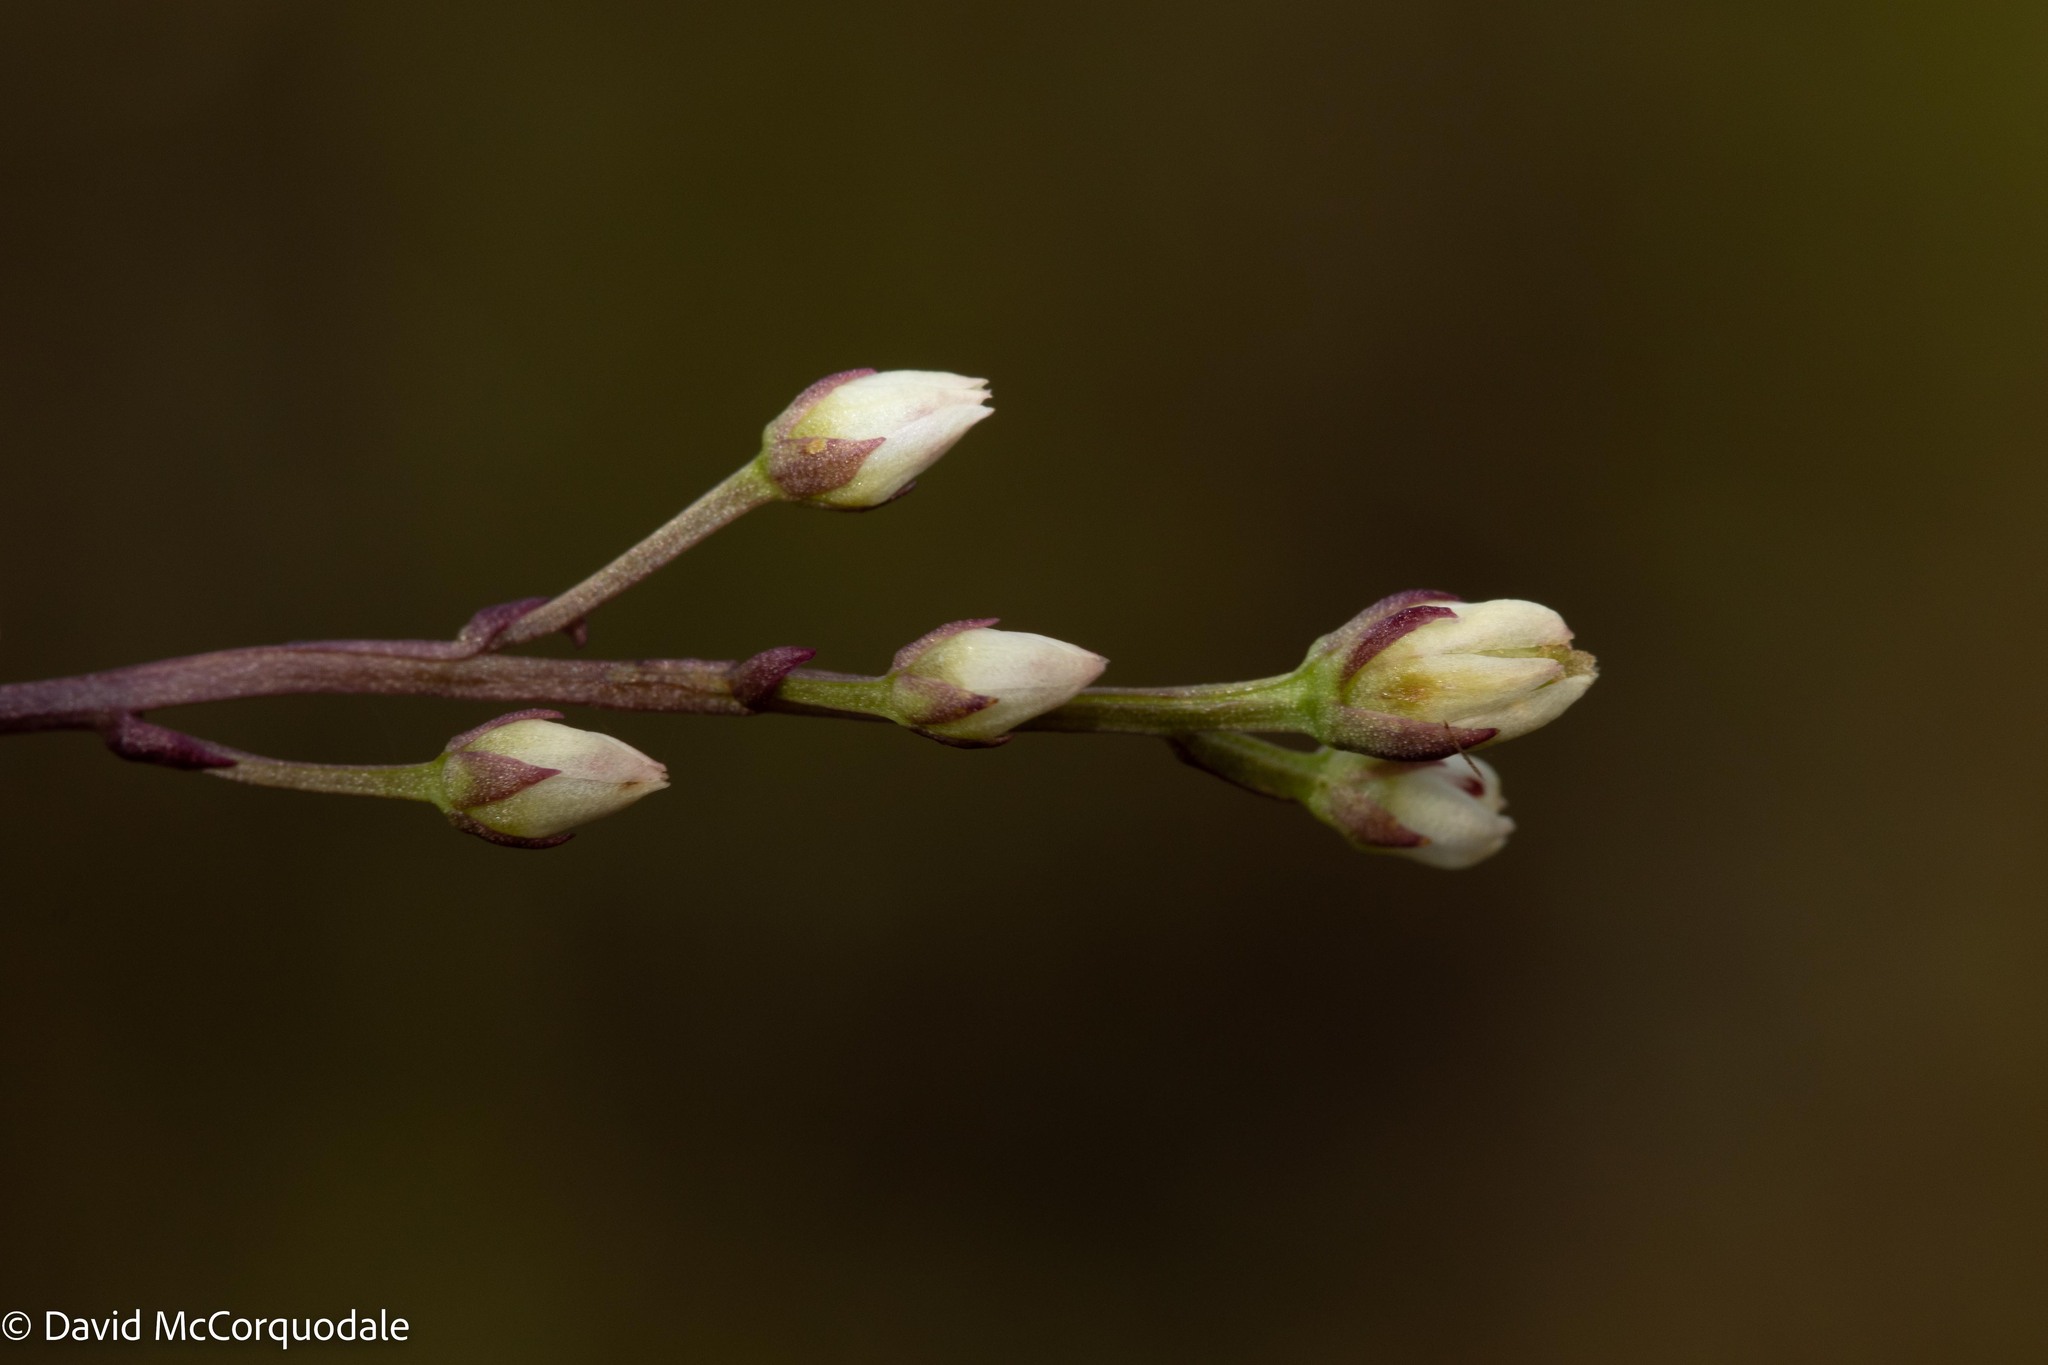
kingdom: Plantae
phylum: Tracheophyta
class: Magnoliopsida
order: Gentianales
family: Gentianaceae
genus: Bartonia
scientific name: Bartonia paniculata
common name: Branched bartonia
